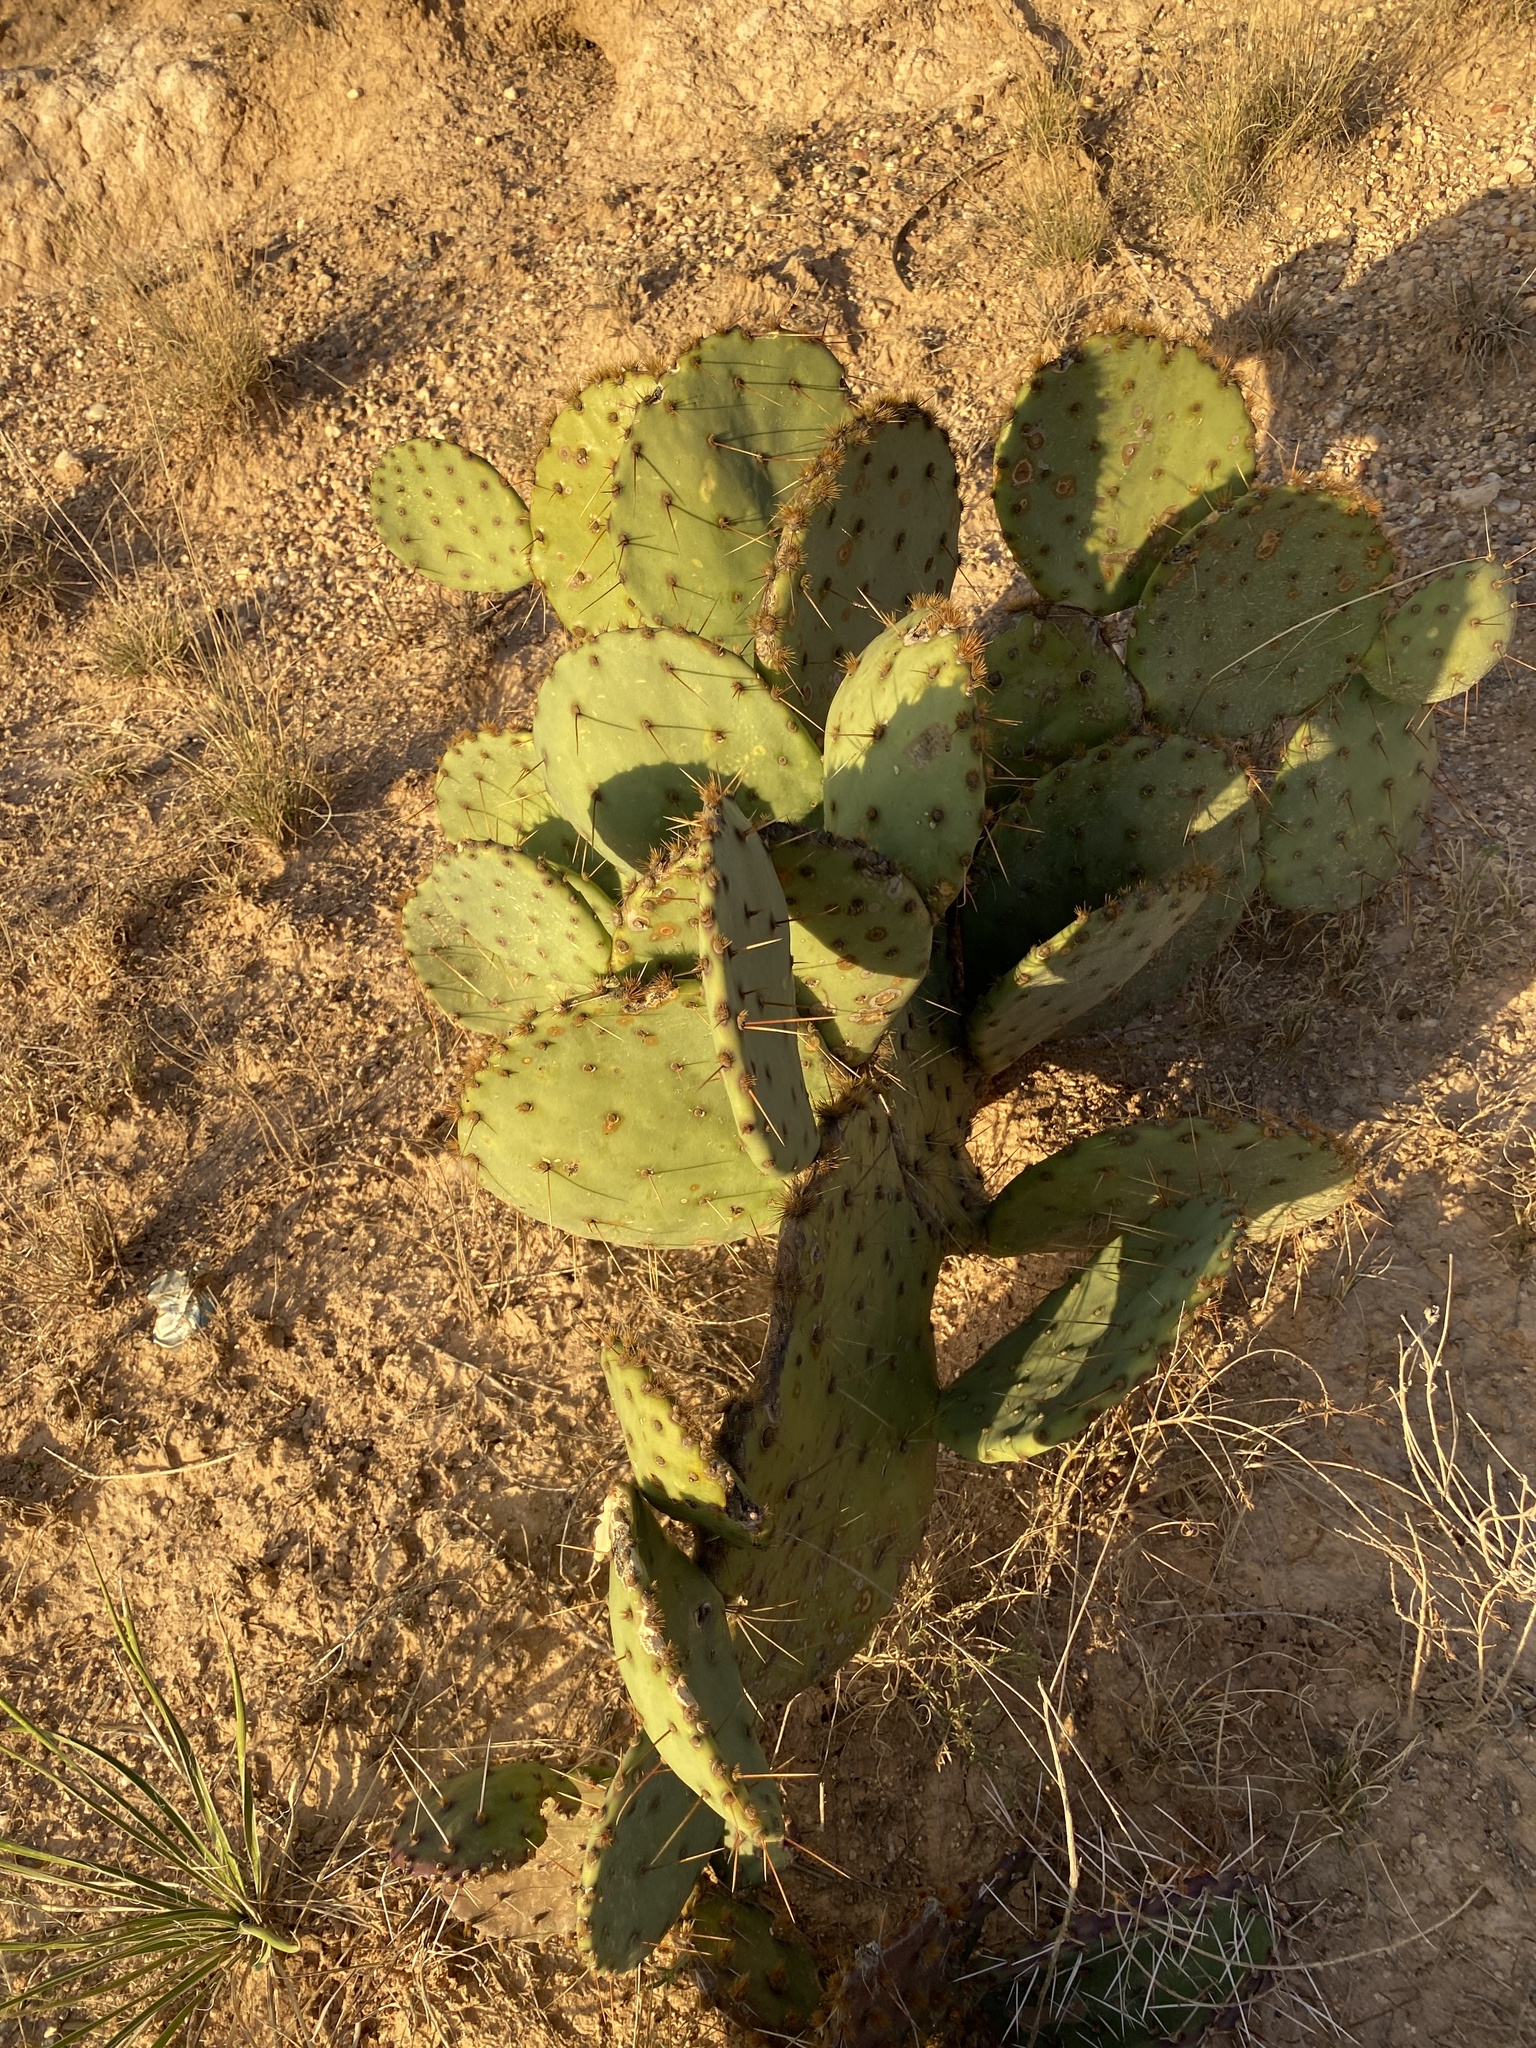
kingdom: Plantae
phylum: Tracheophyta
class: Magnoliopsida
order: Caryophyllales
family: Cactaceae
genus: Opuntia
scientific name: Opuntia engelmannii
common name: Cactus-apple
